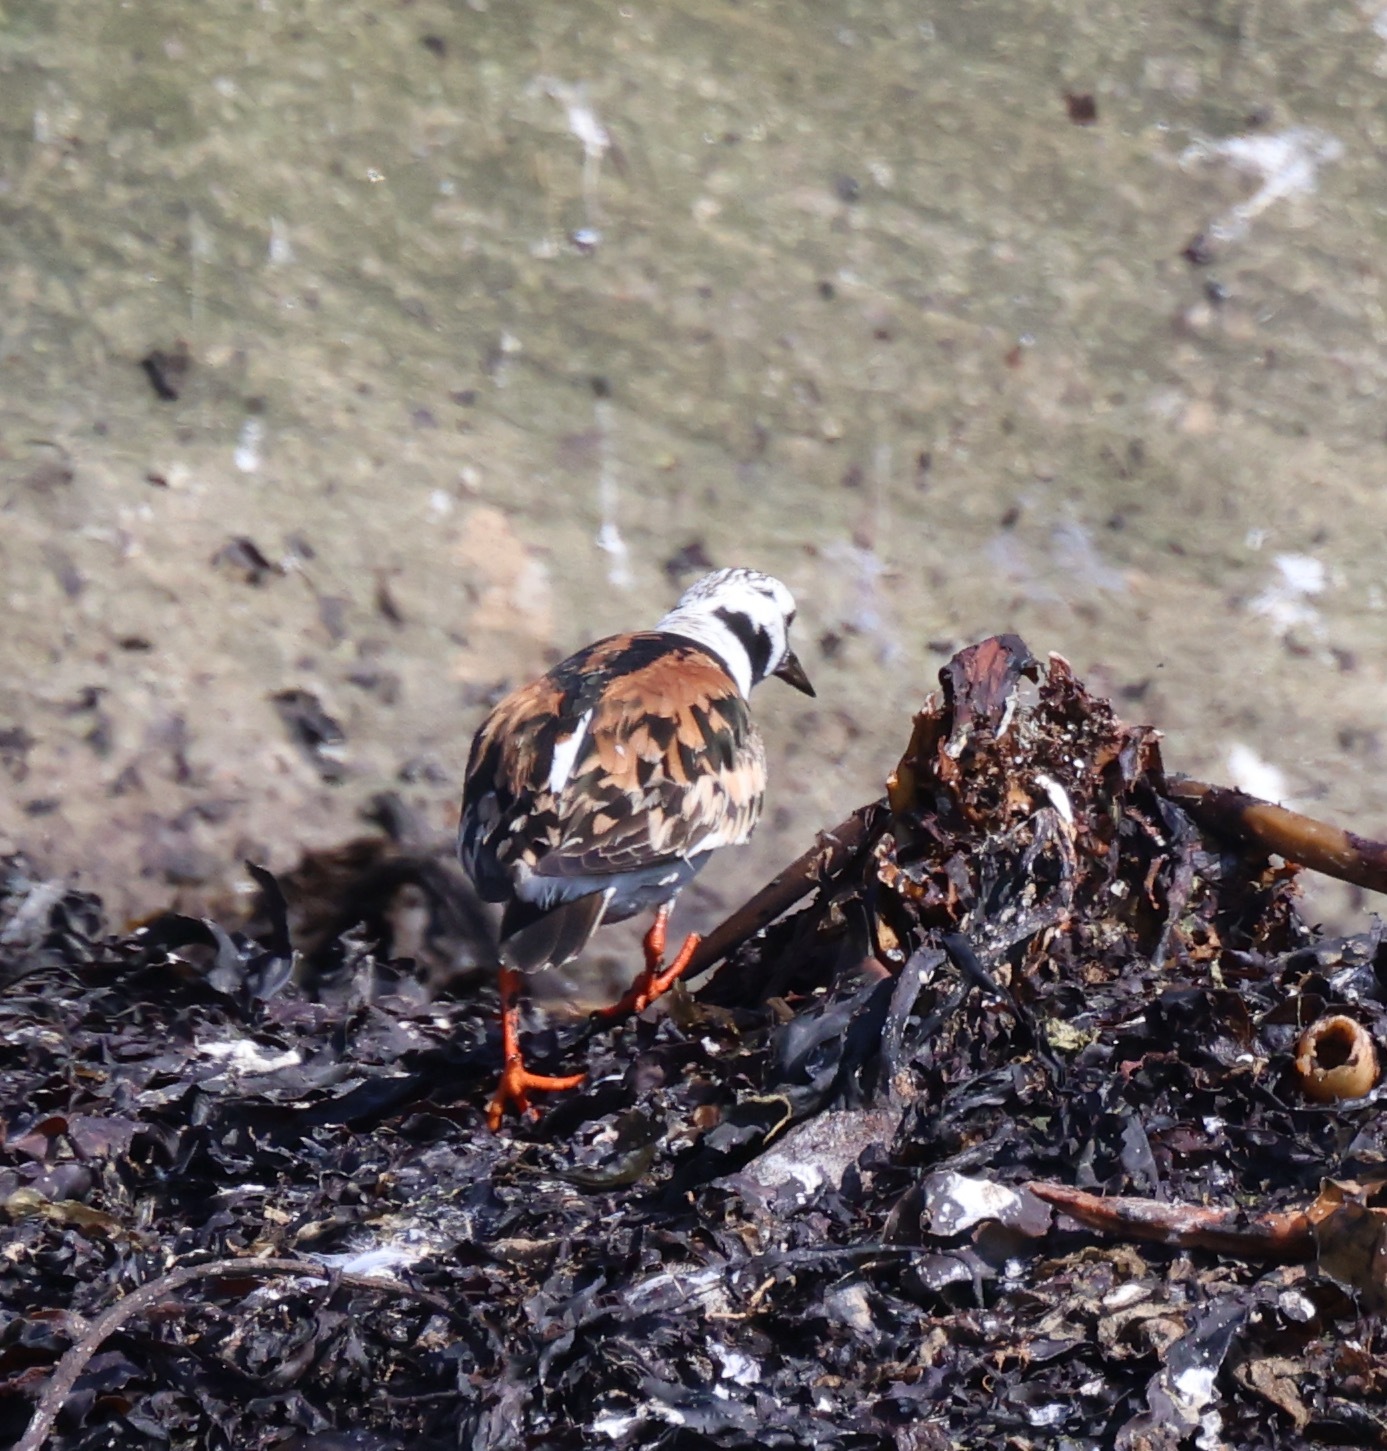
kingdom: Animalia
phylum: Chordata
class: Aves
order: Charadriiformes
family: Scolopacidae
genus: Arenaria
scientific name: Arenaria interpres
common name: Ruddy turnstone
